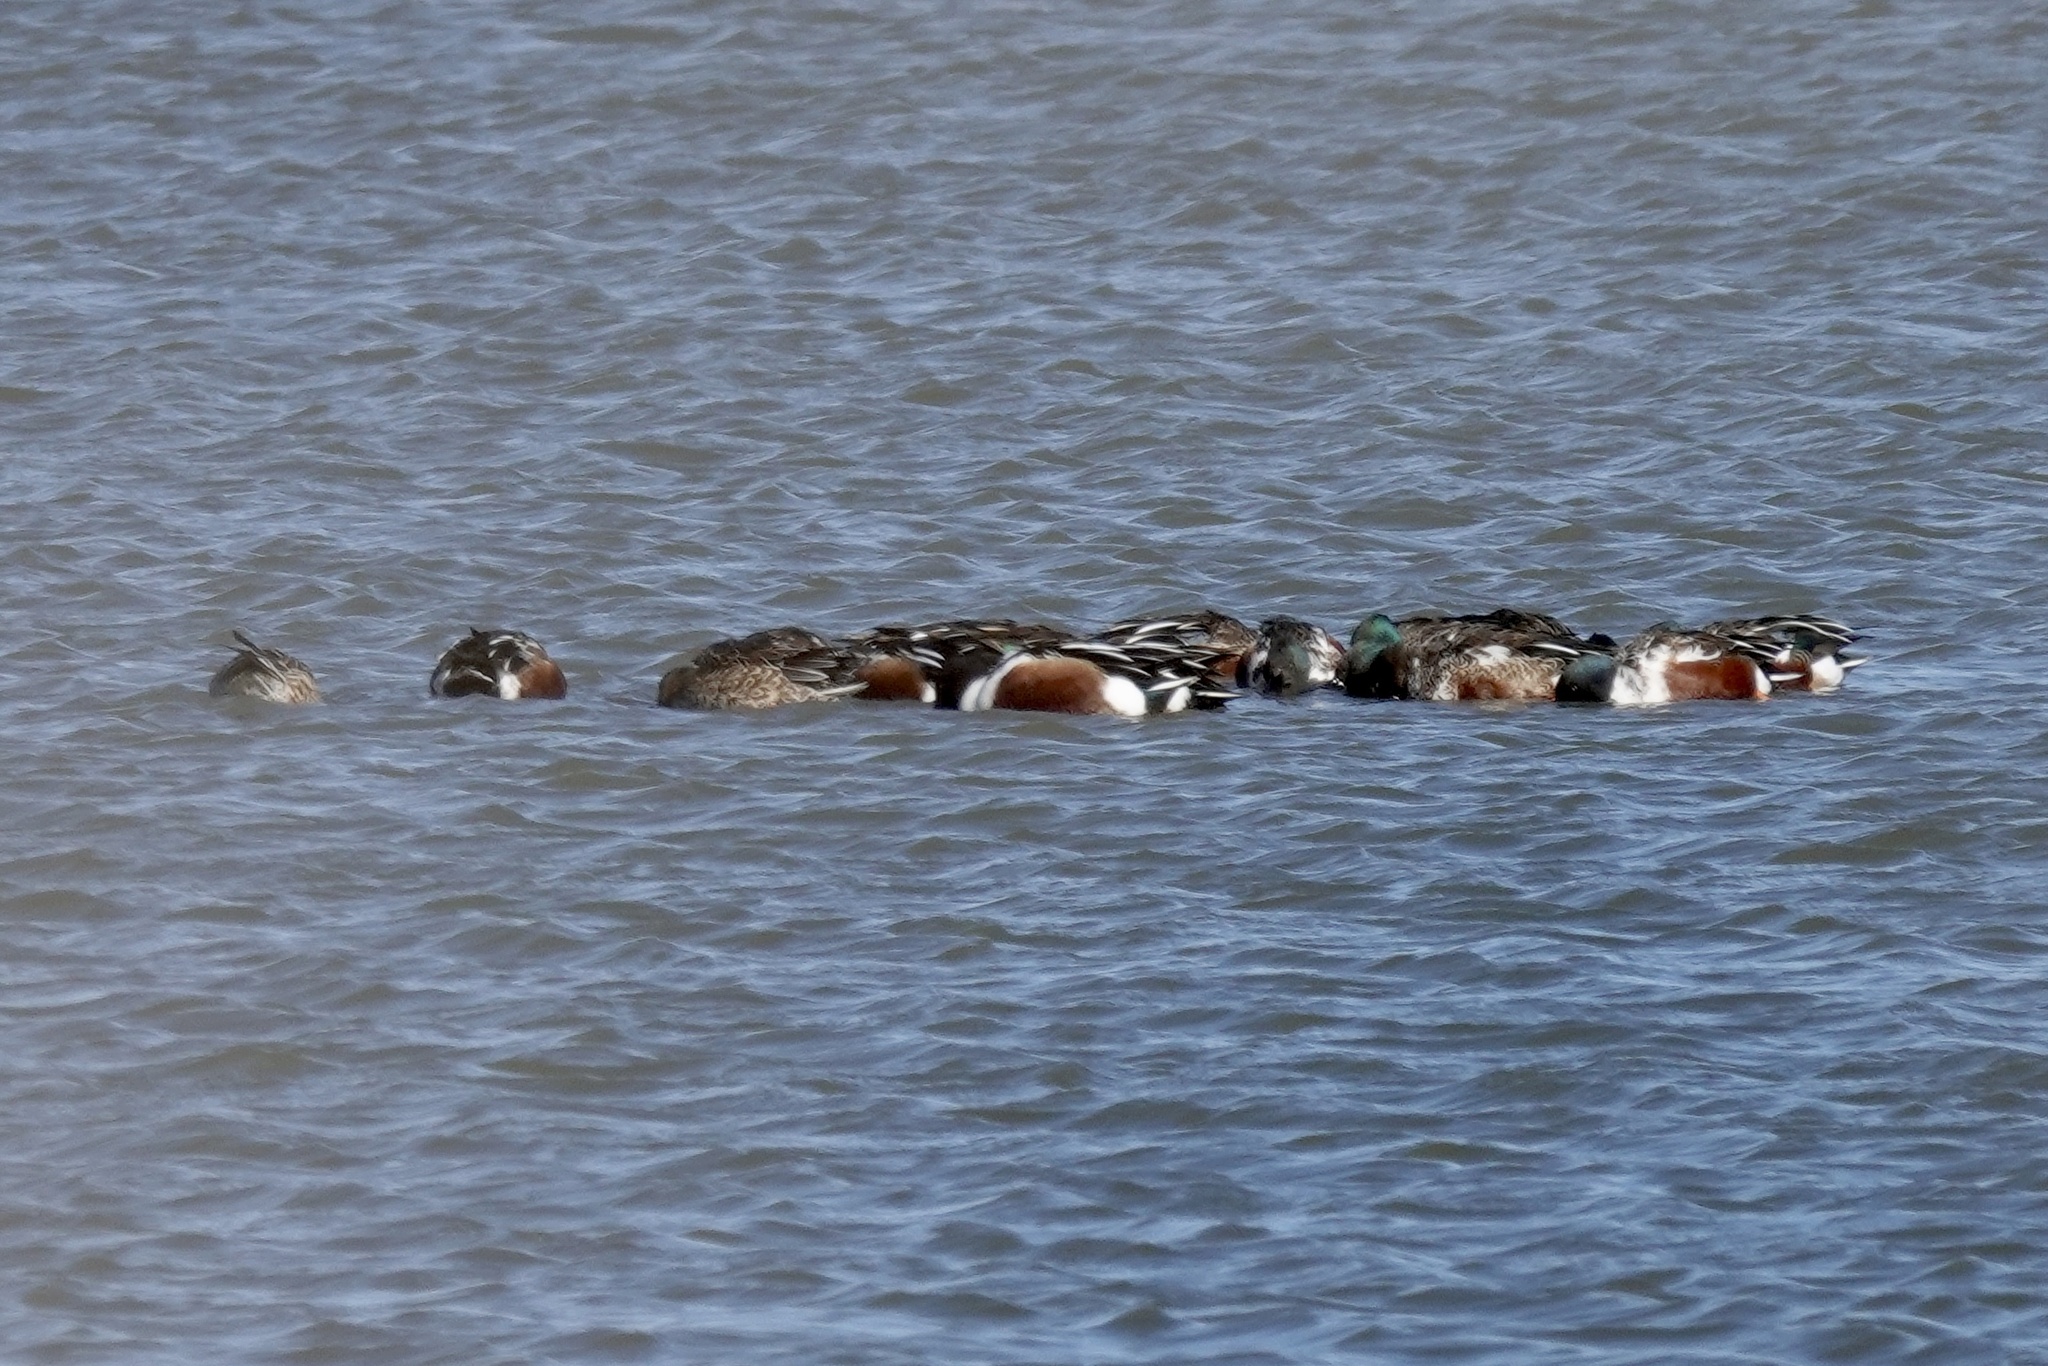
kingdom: Animalia
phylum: Chordata
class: Aves
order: Anseriformes
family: Anatidae
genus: Spatula
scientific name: Spatula clypeata
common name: Northern shoveler
